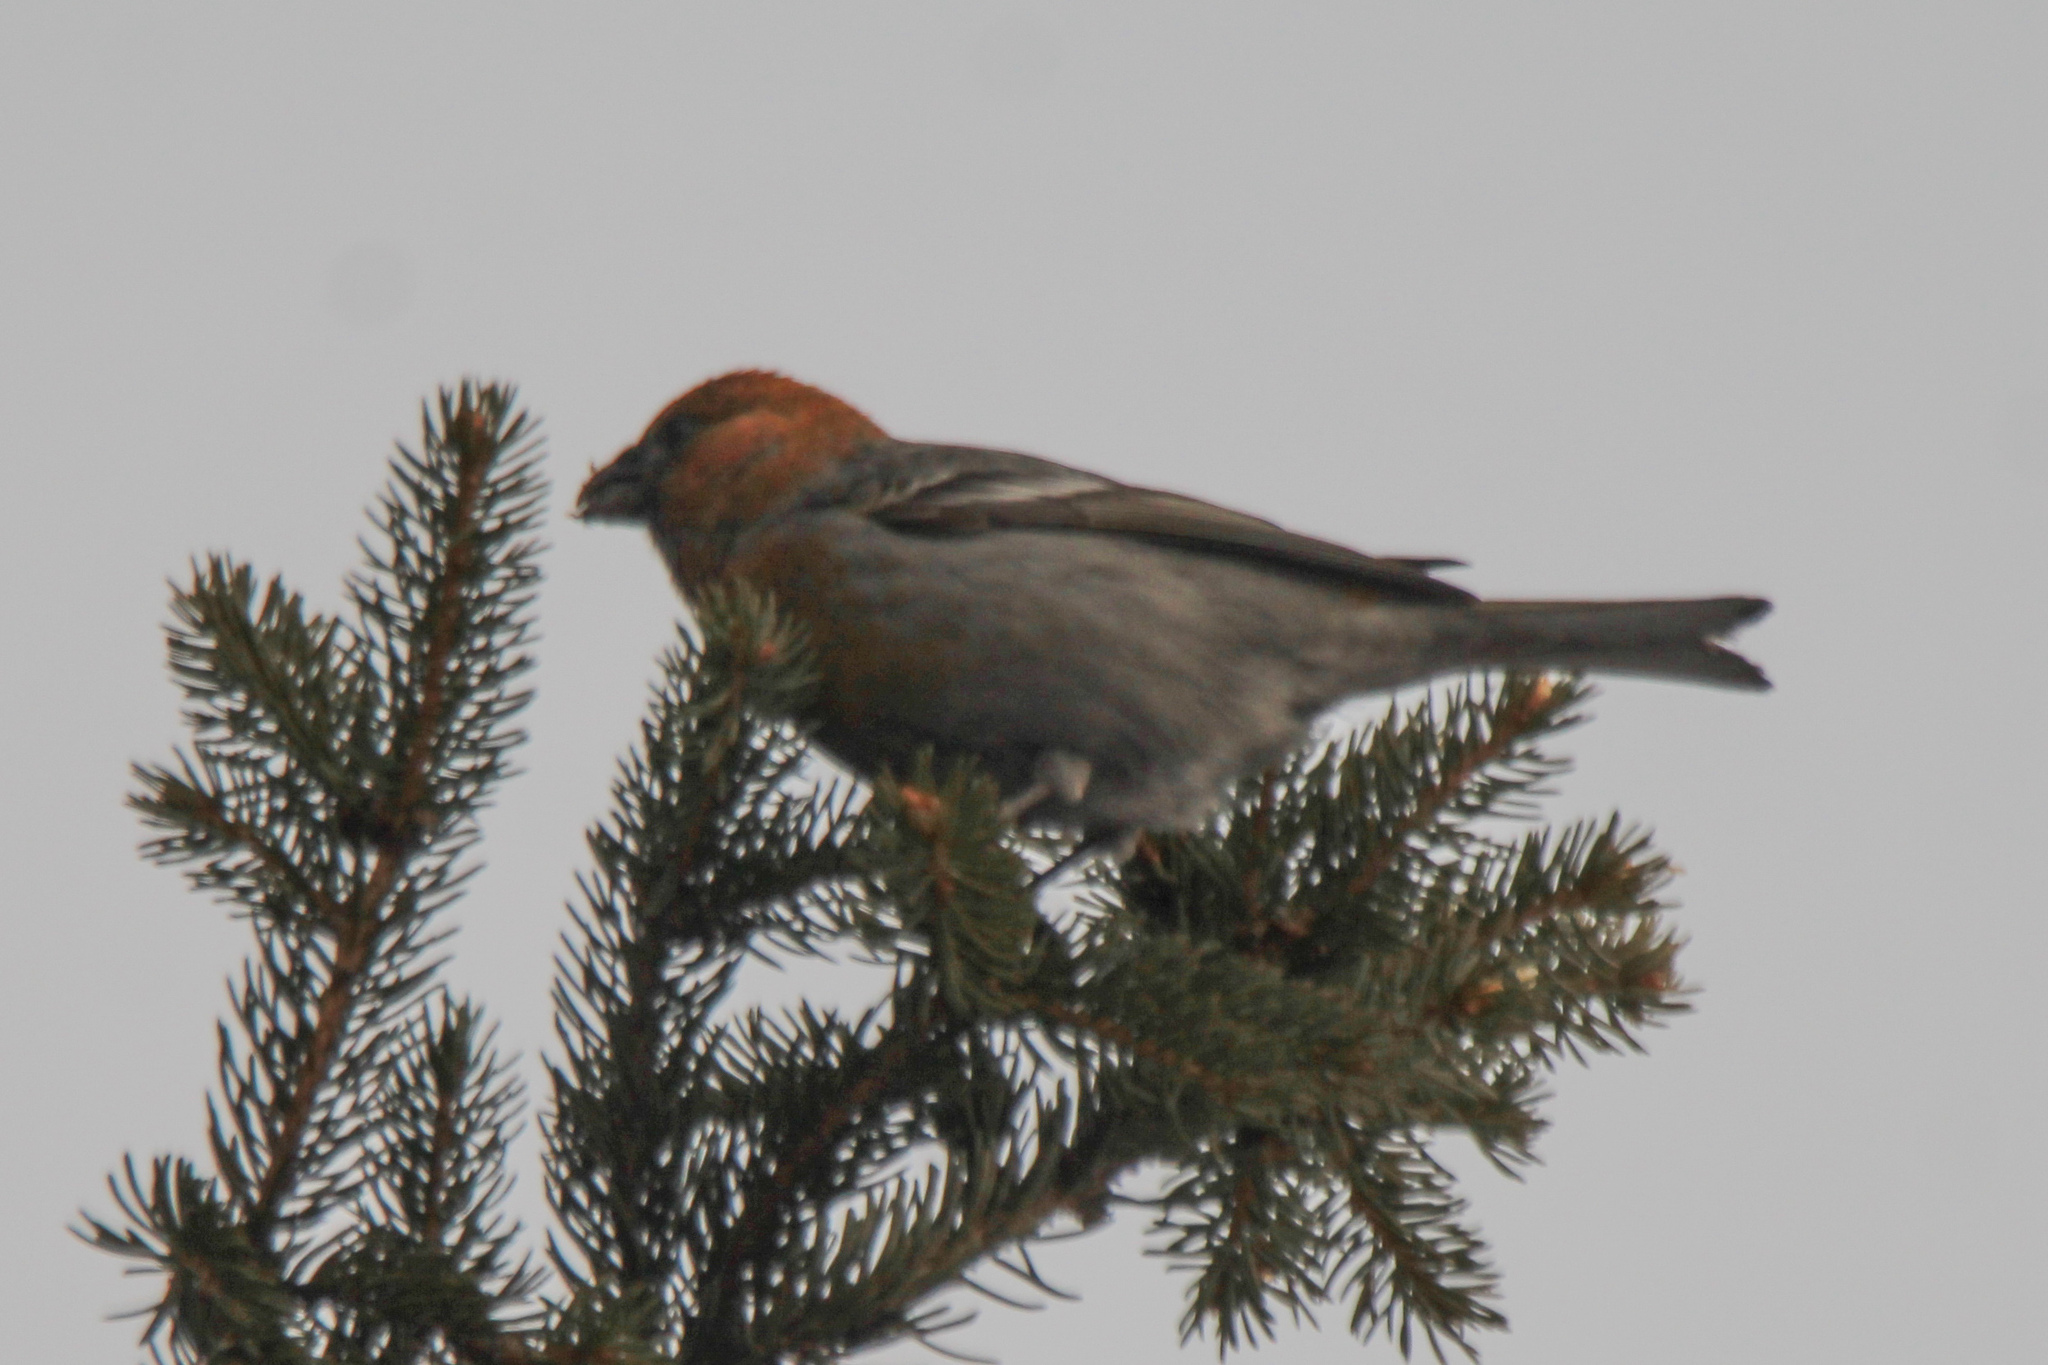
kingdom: Animalia
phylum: Chordata
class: Aves
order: Passeriformes
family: Fringillidae
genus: Pinicola
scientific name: Pinicola enucleator
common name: Pine grosbeak
